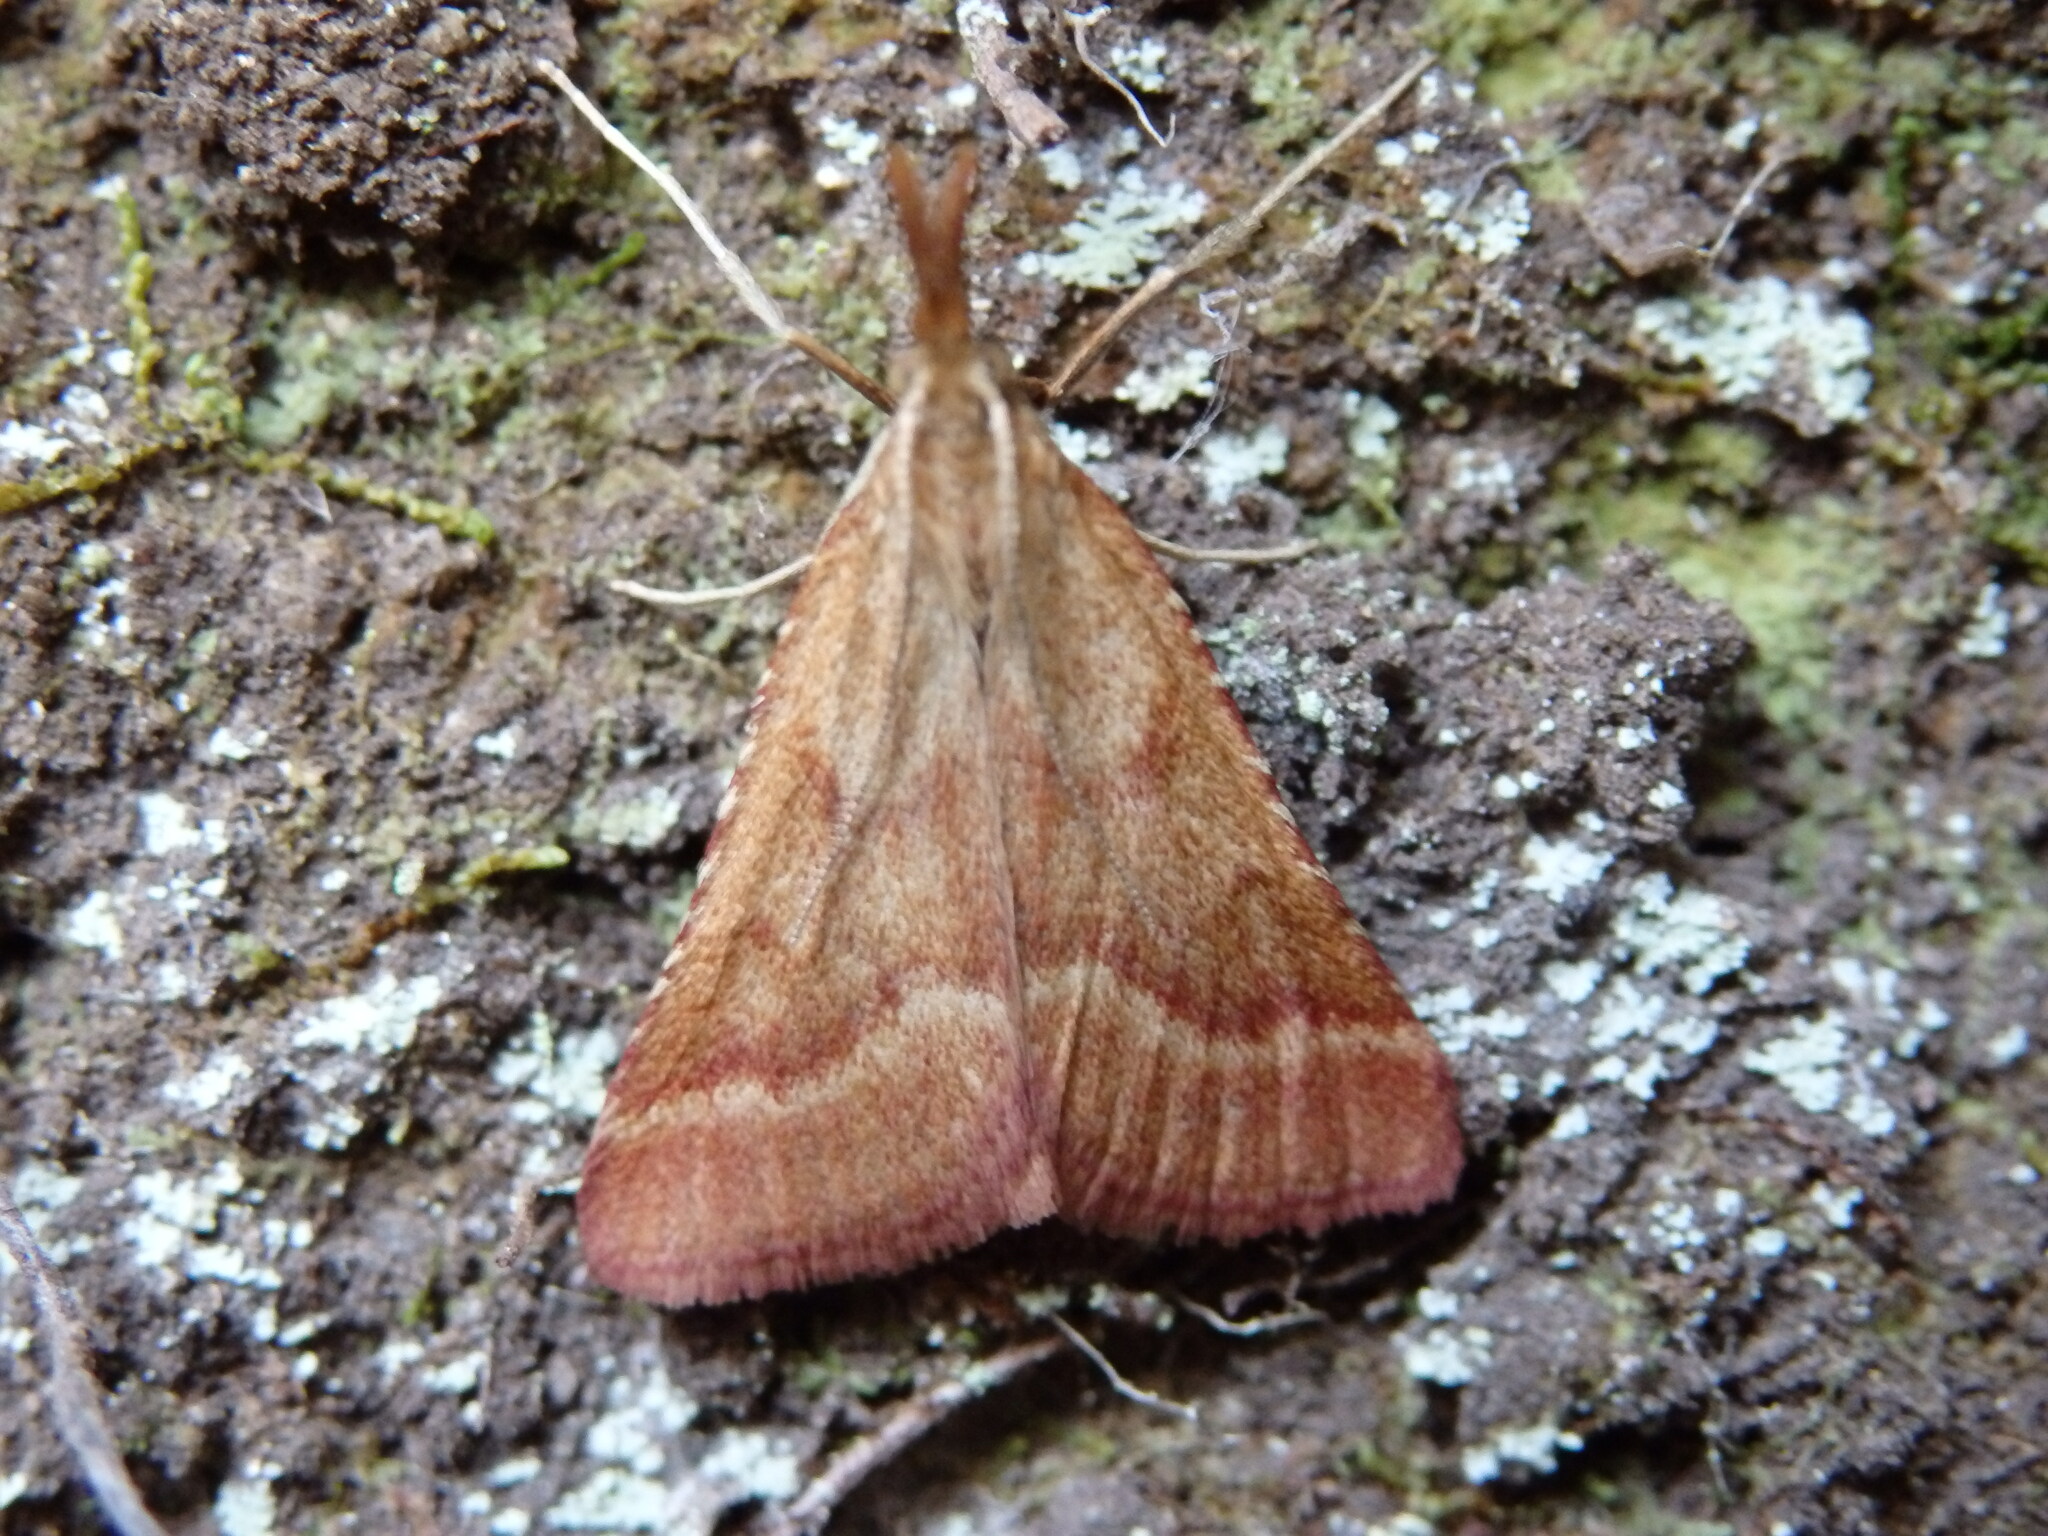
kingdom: Animalia
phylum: Arthropoda
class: Insecta
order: Lepidoptera
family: Pyralidae
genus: Synaphe
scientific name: Synaphe punctalis
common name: Long-legged tabby
